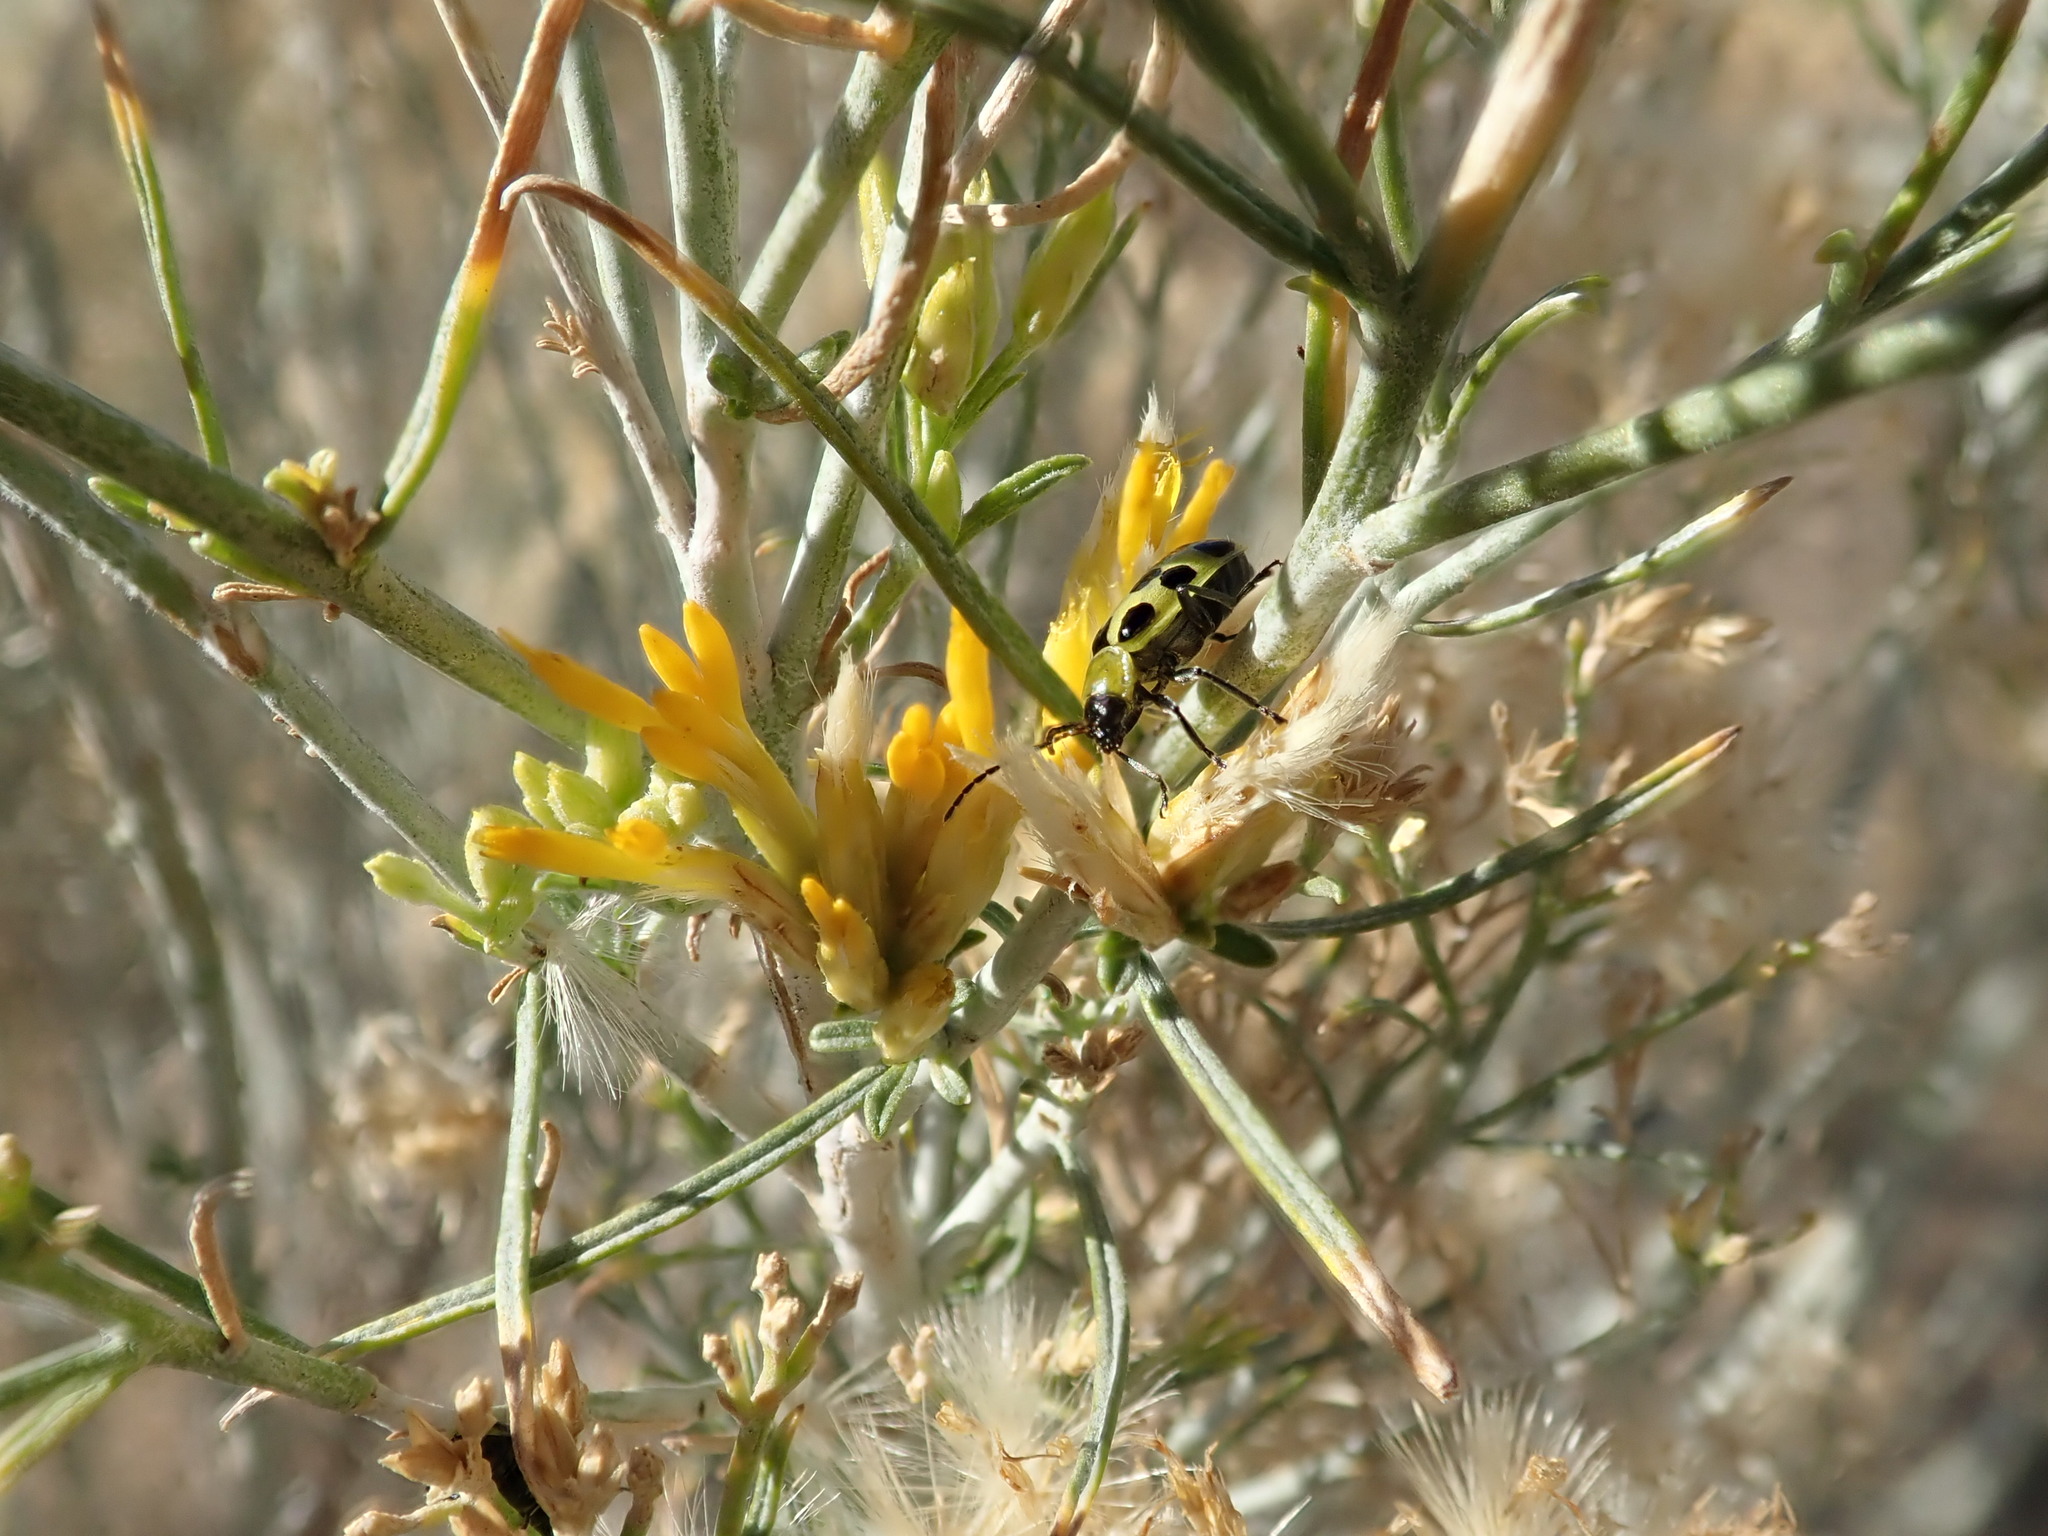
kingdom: Plantae
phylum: Tracheophyta
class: Magnoliopsida
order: Asterales
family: Asteraceae
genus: Ericameria
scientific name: Ericameria nauseosa
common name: Rubber rabbitbrush
